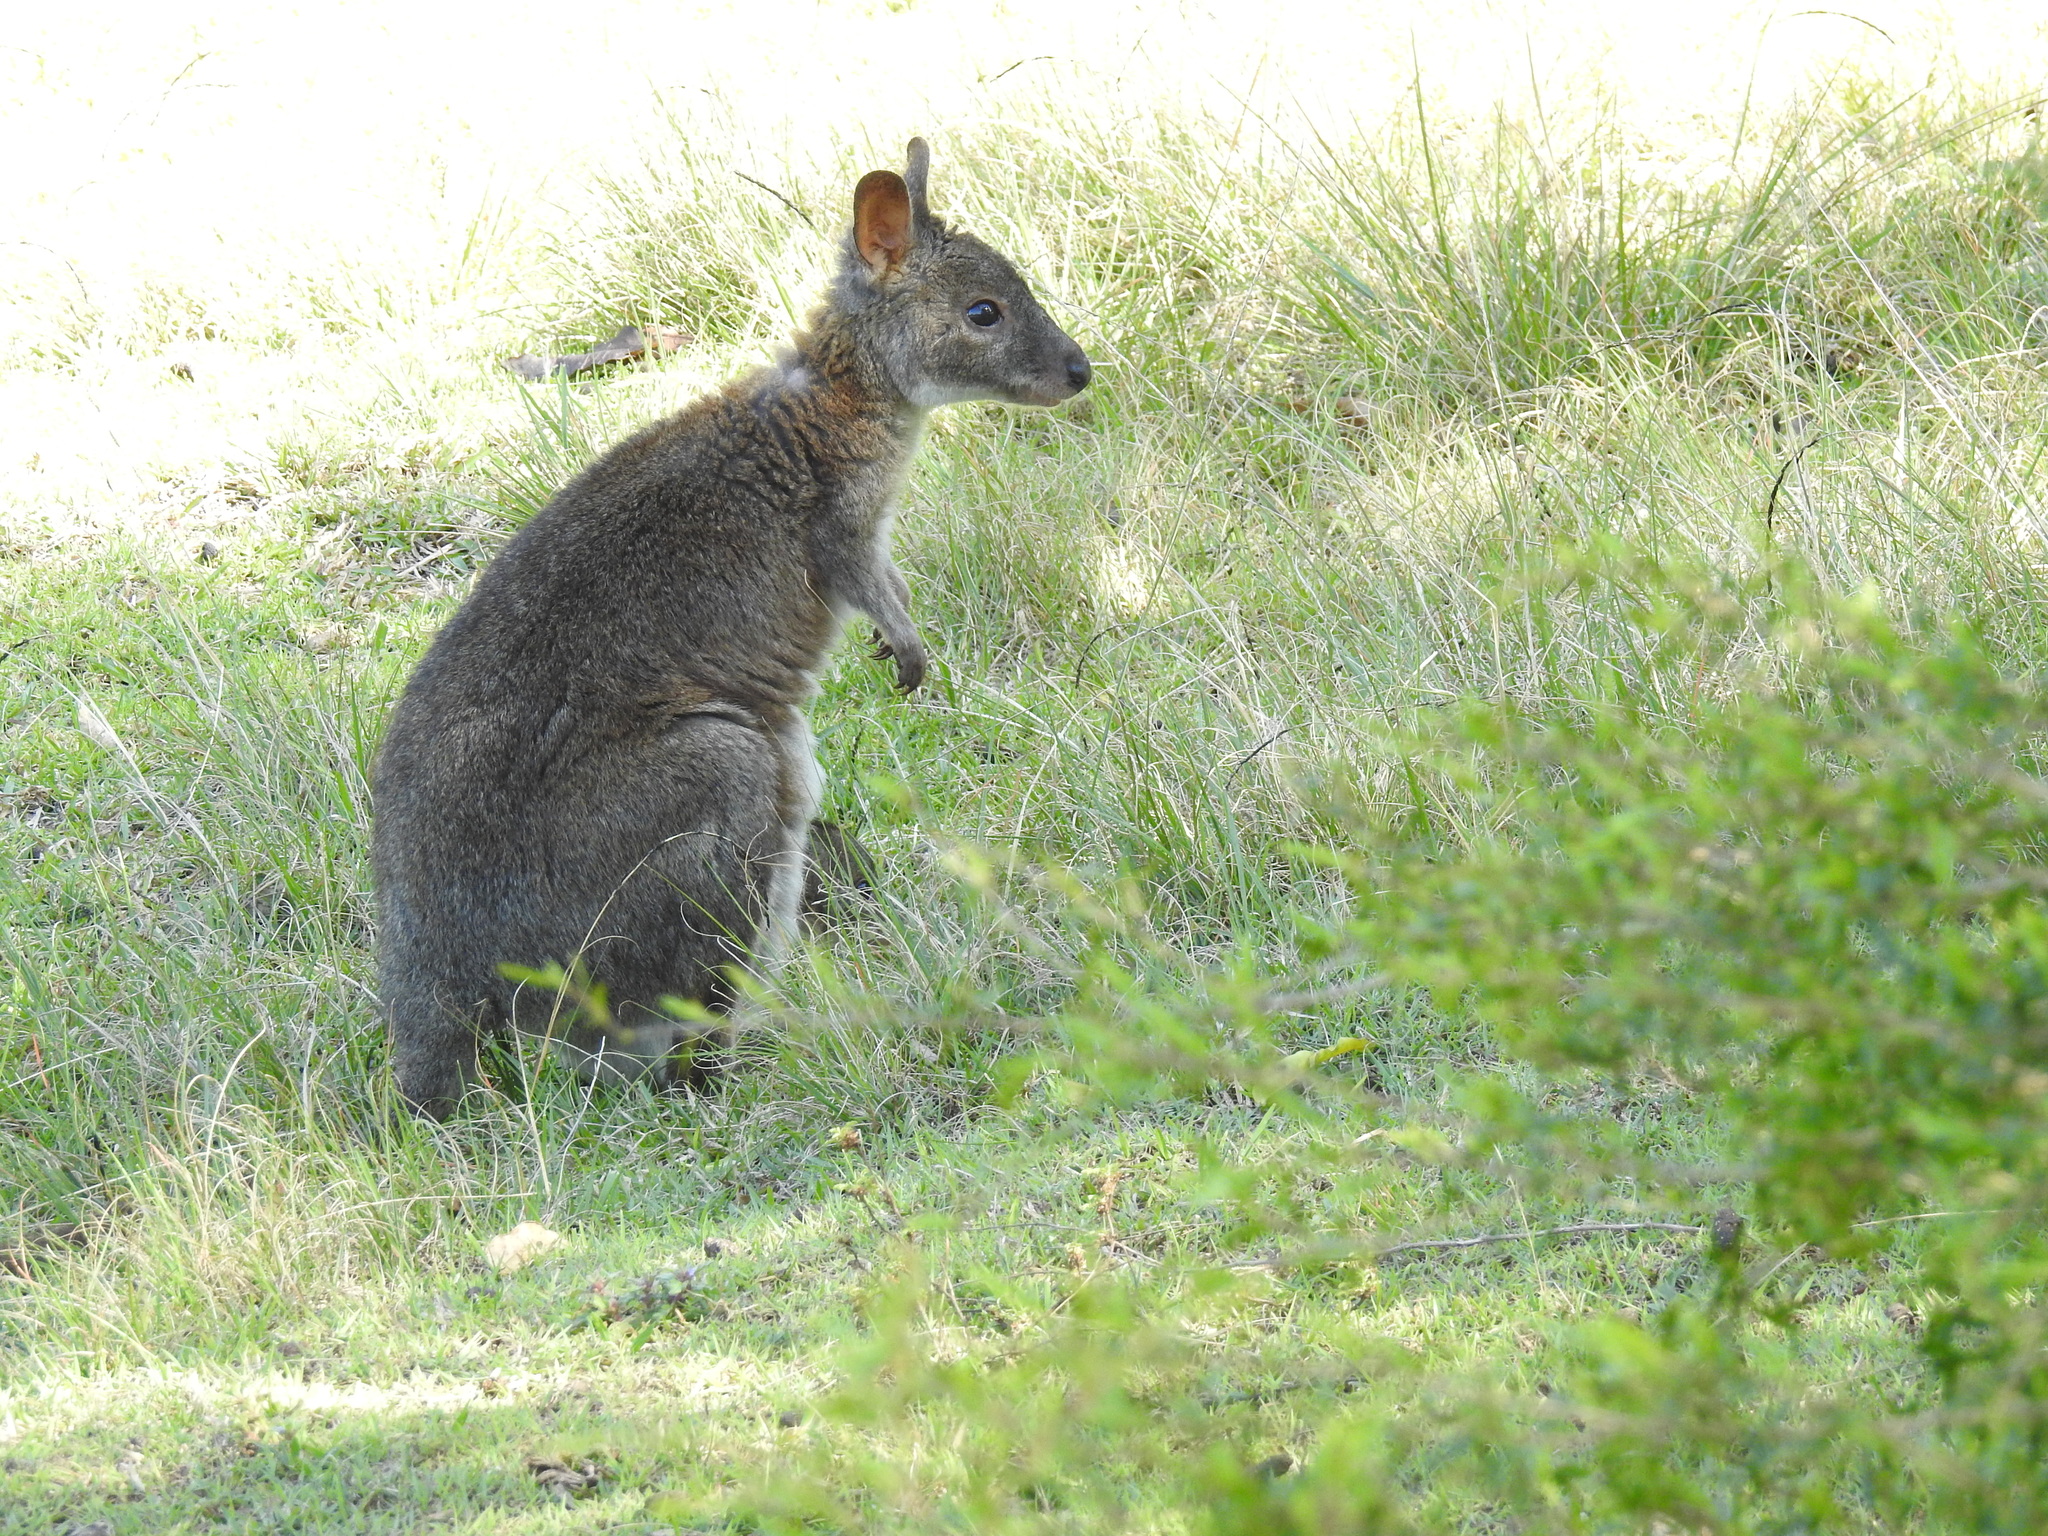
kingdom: Animalia
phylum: Chordata
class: Mammalia
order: Diprotodontia
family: Macropodidae
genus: Thylogale
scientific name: Thylogale thetis
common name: Red-necked pademelon
